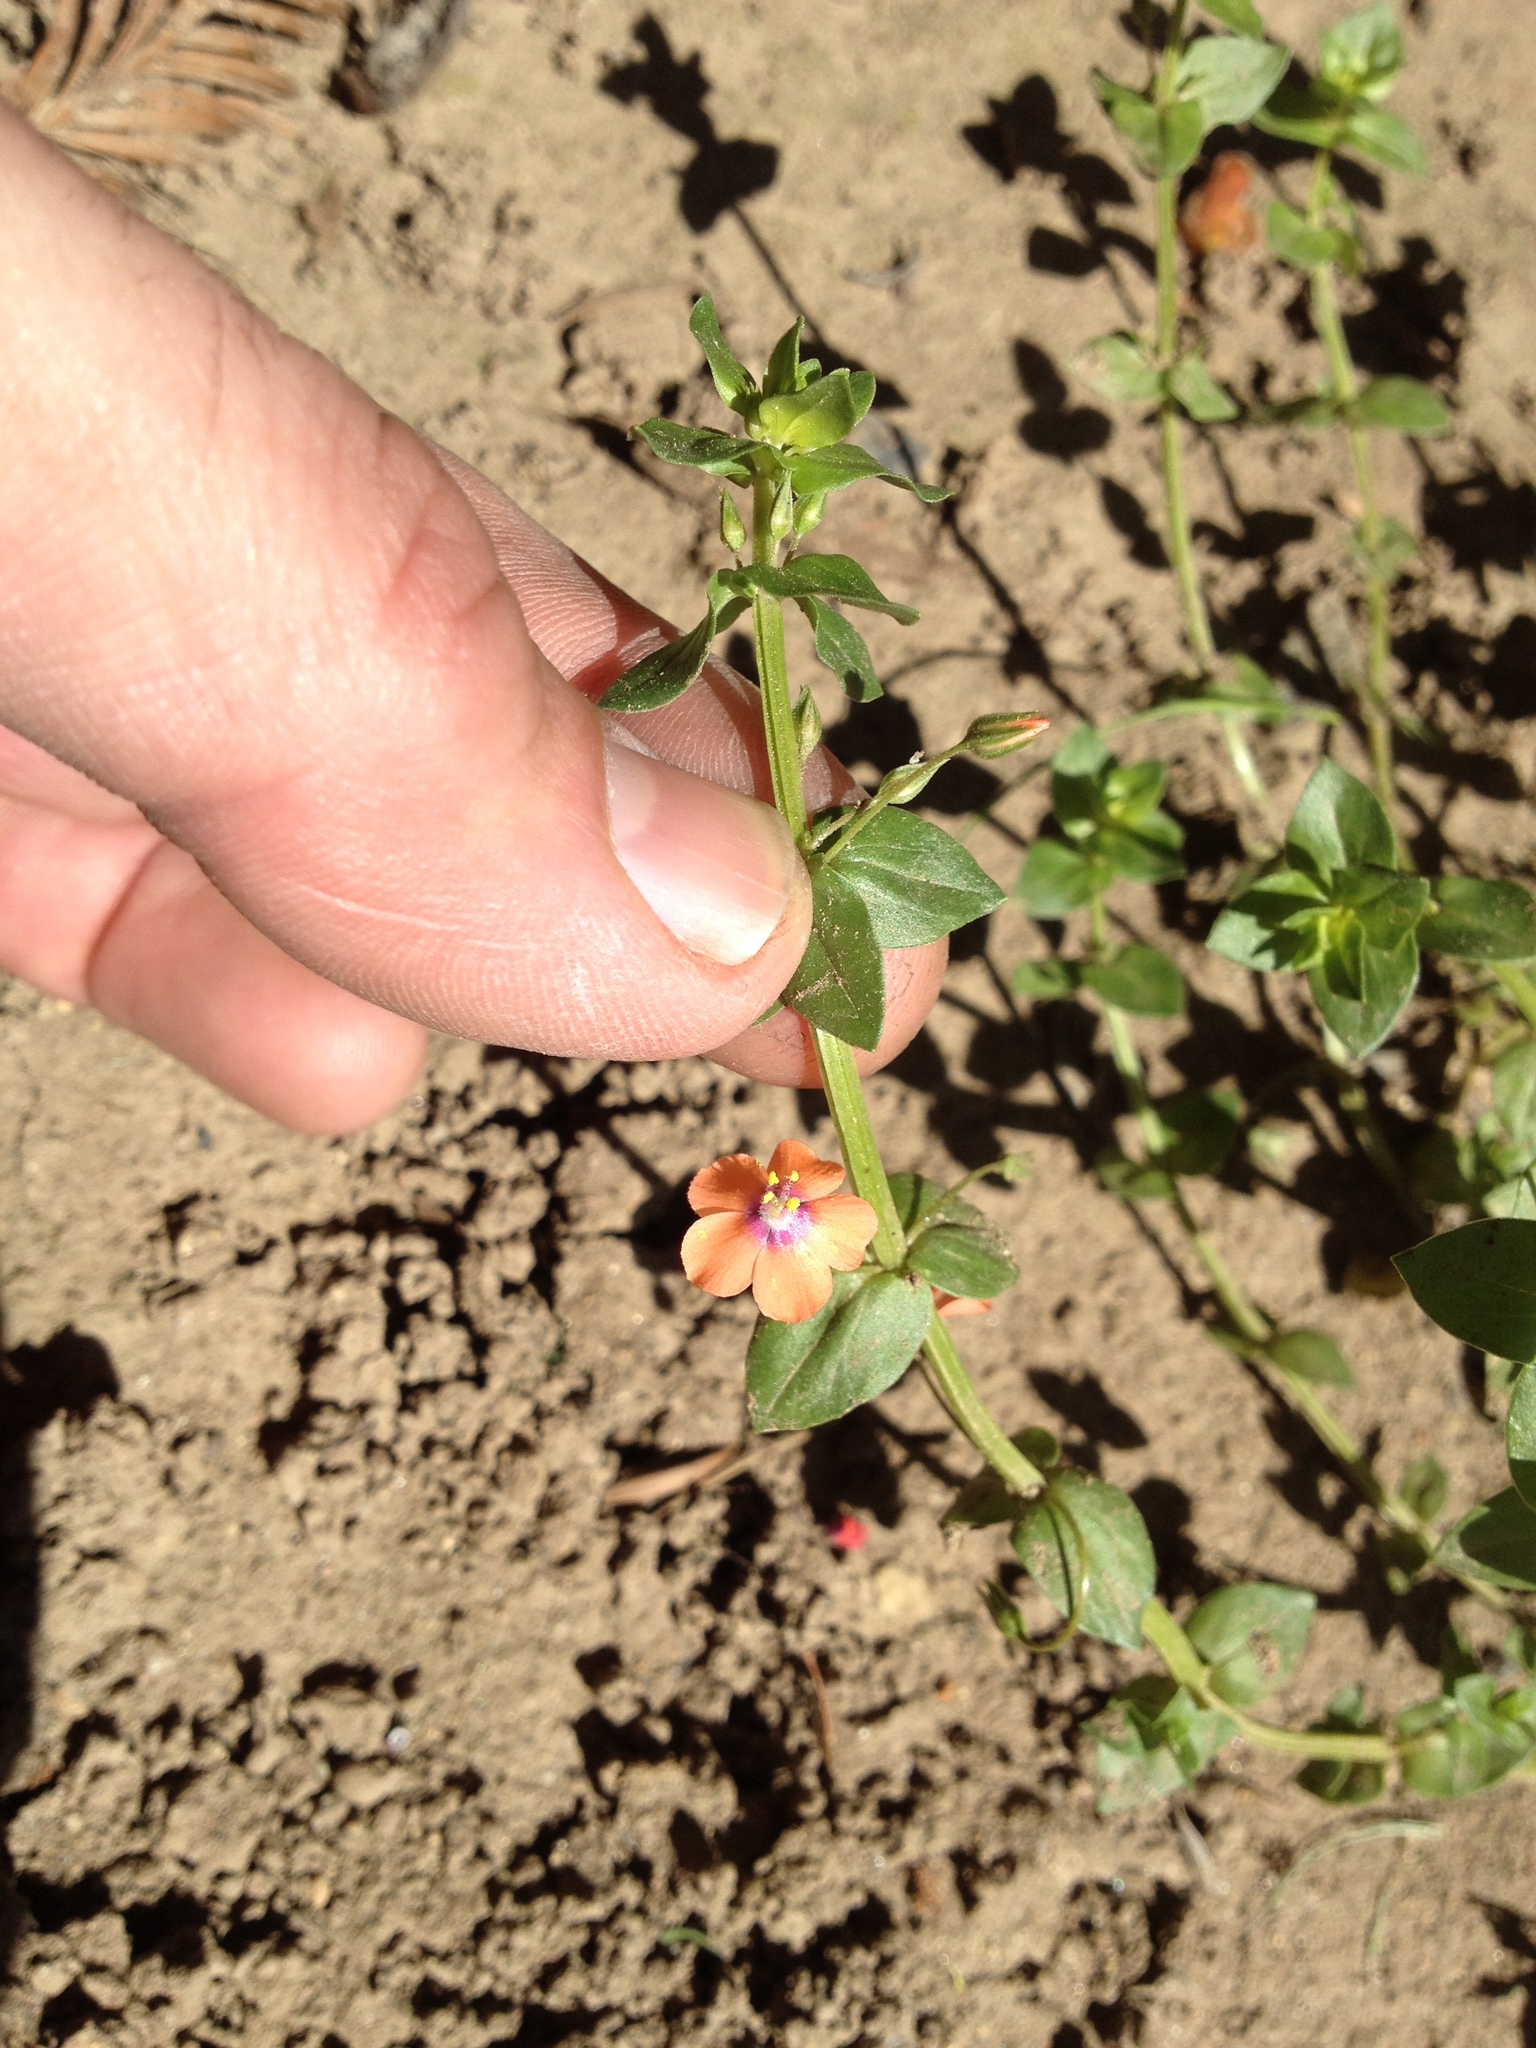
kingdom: Plantae
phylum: Tracheophyta
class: Magnoliopsida
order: Ericales
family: Primulaceae
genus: Lysimachia
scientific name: Lysimachia arvensis
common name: Scarlet pimpernel
